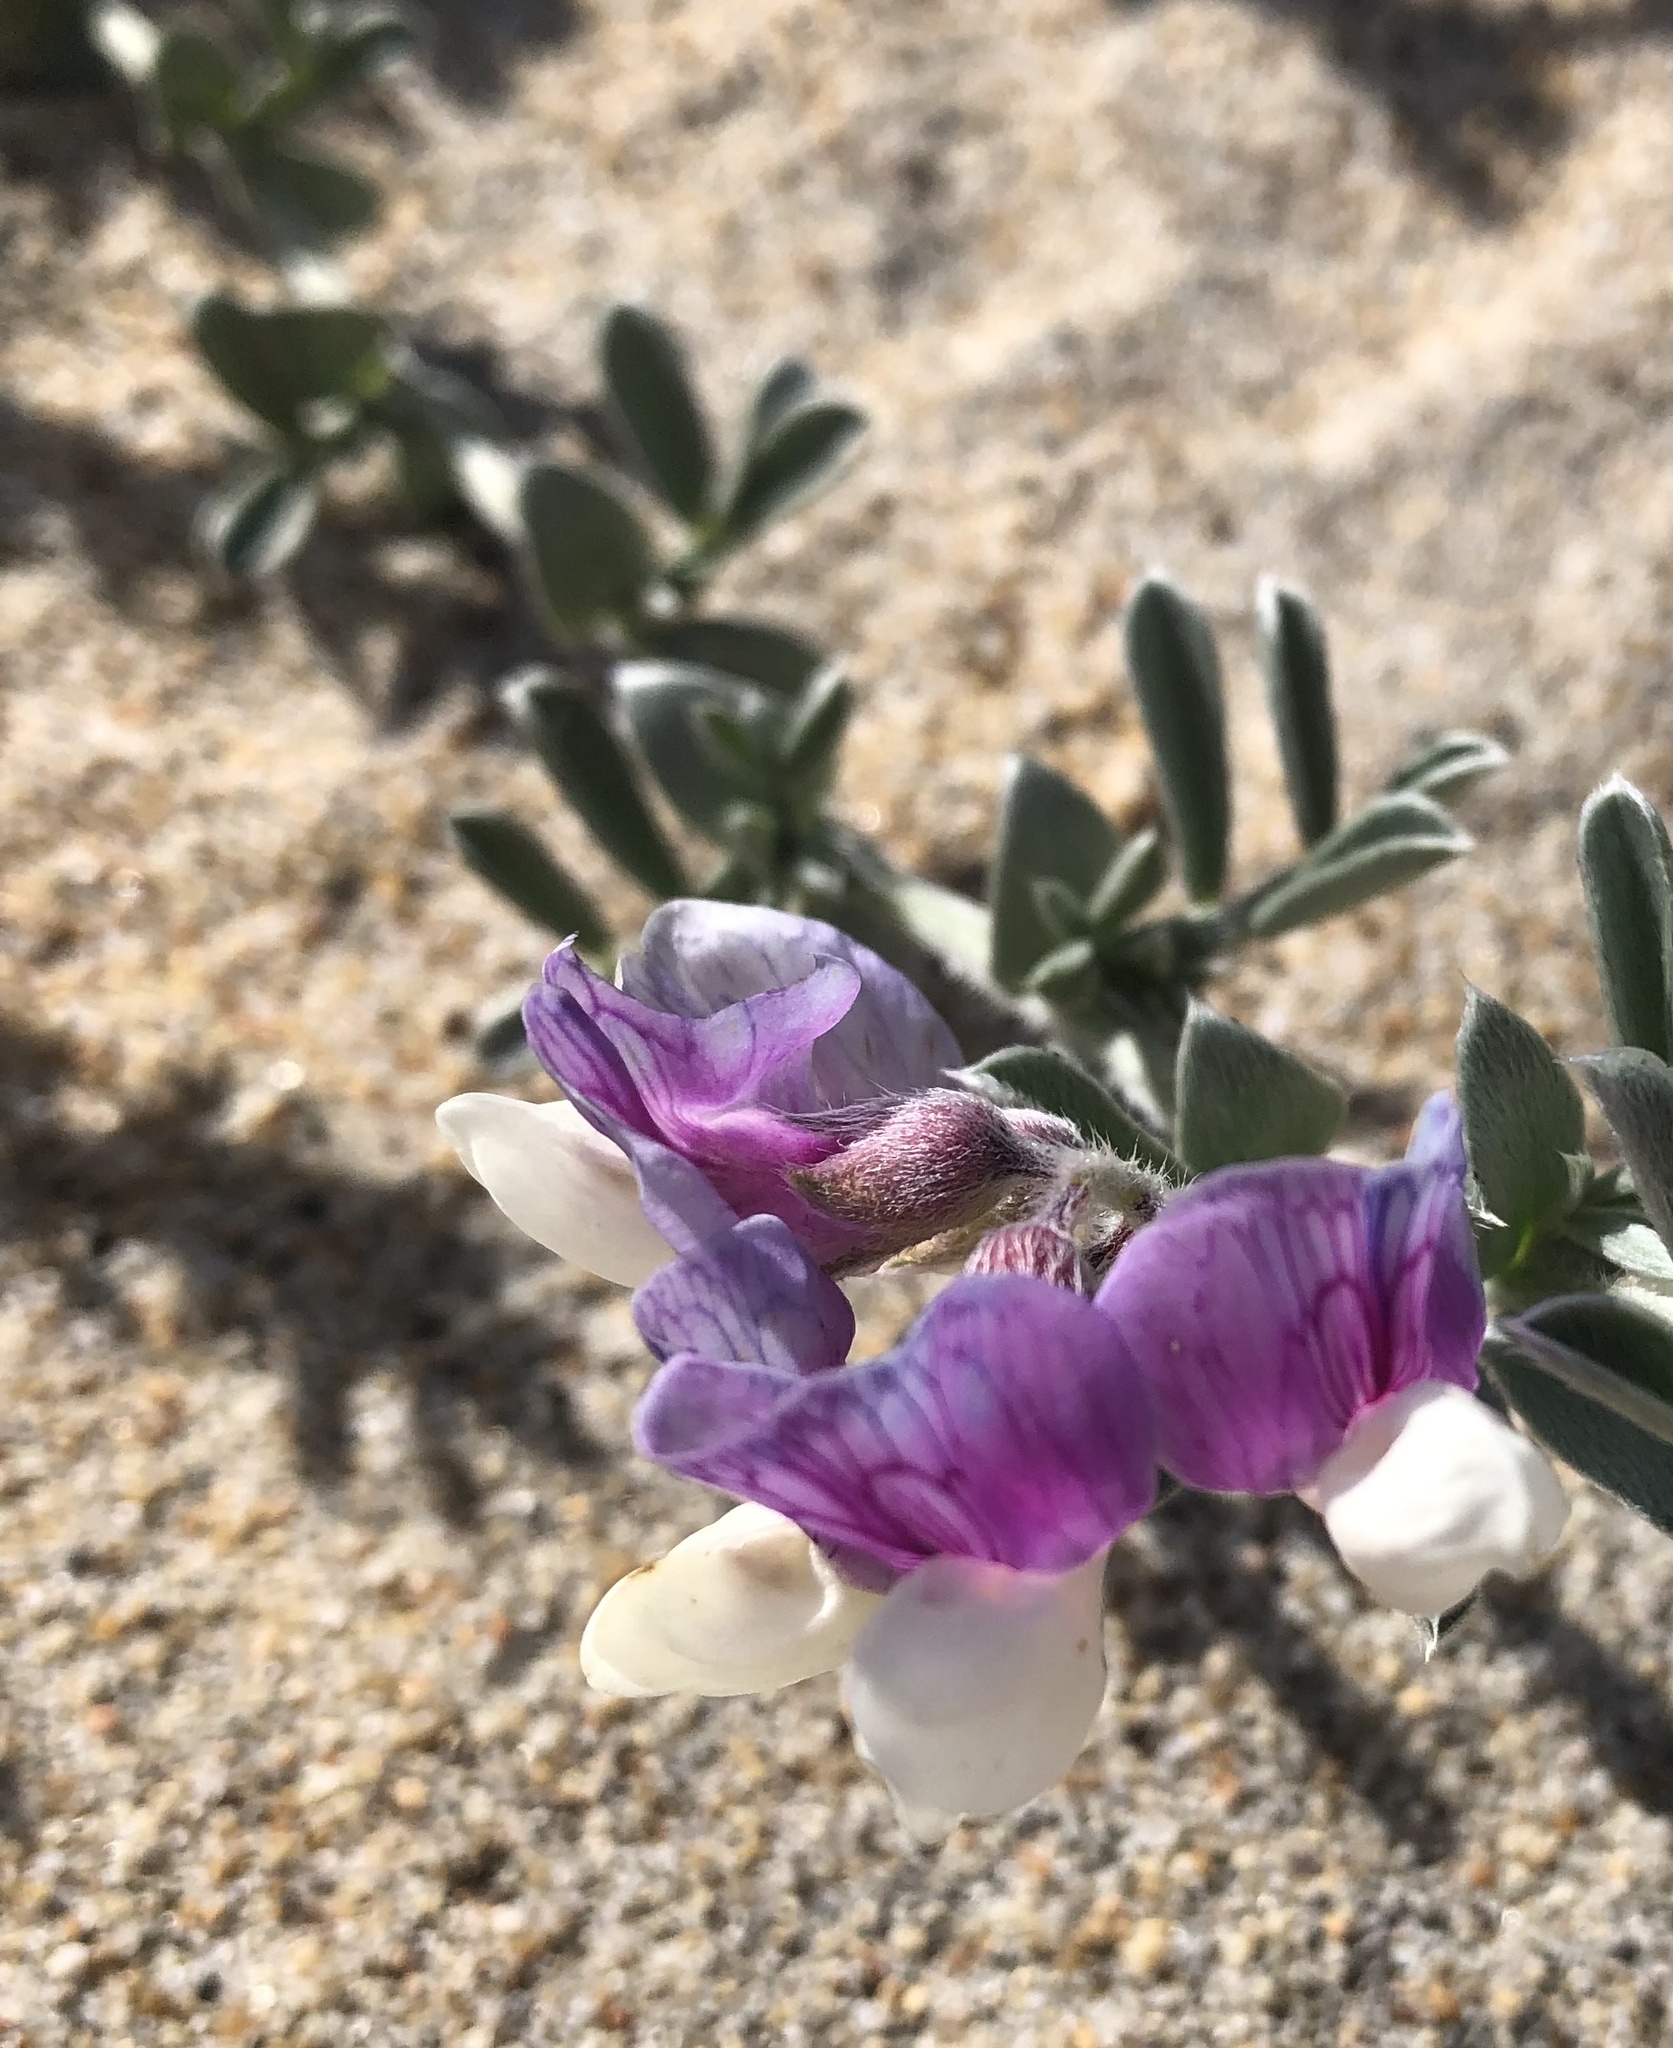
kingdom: Plantae
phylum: Tracheophyta
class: Magnoliopsida
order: Fabales
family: Fabaceae
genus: Lathyrus
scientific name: Lathyrus littoralis
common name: Dune sweet pea
